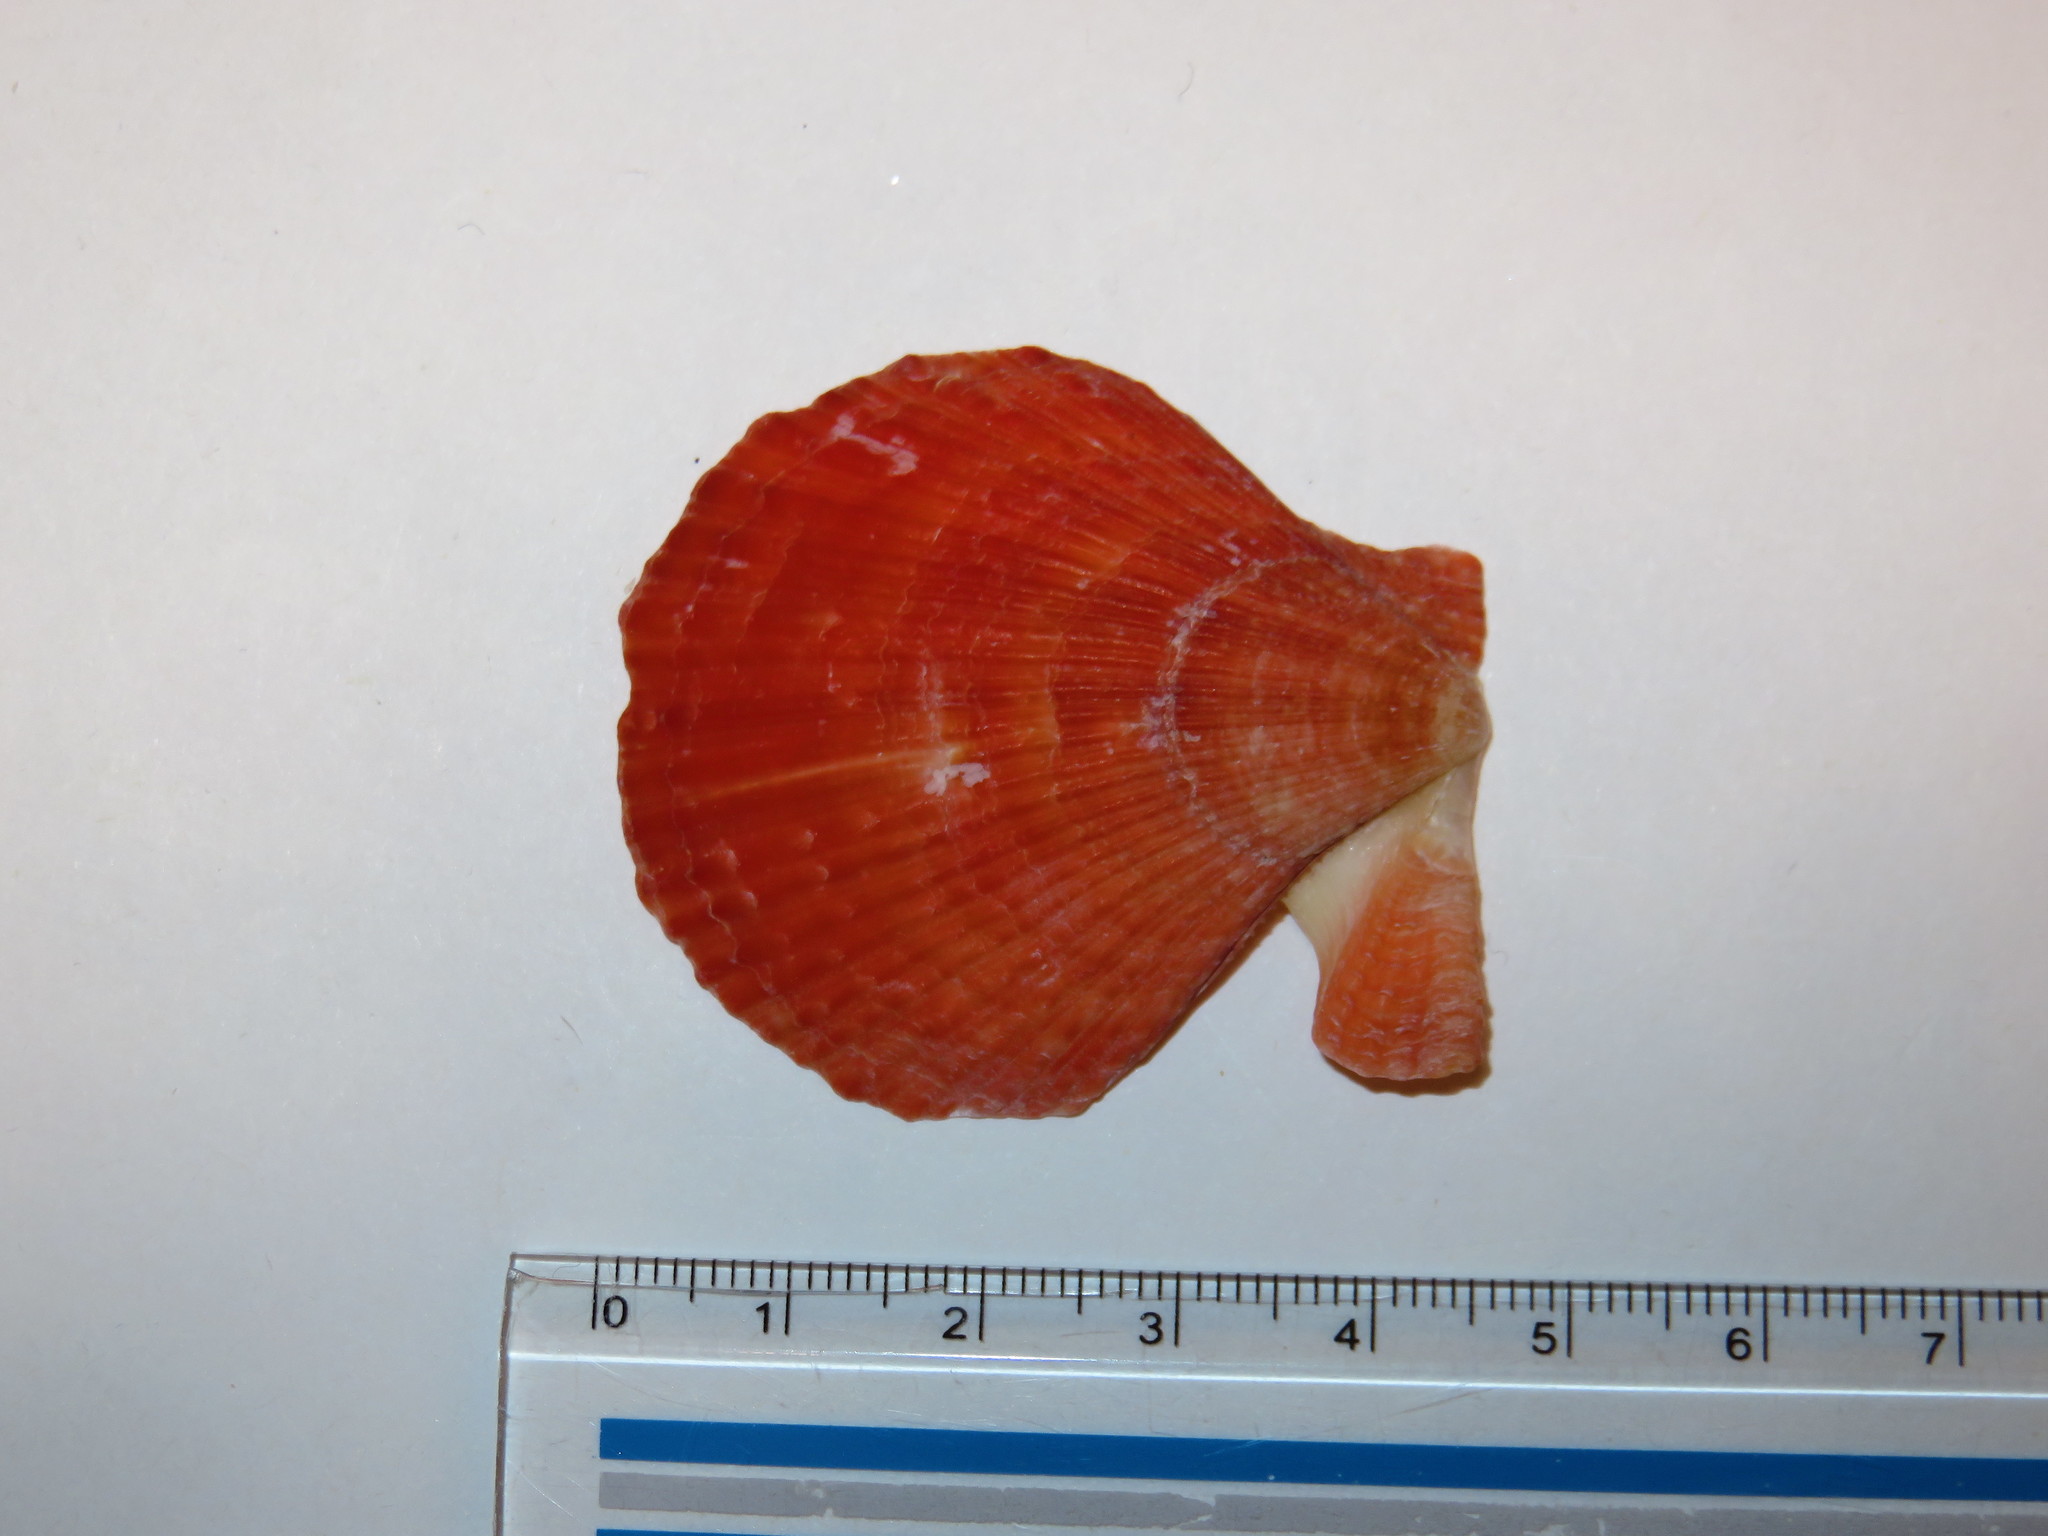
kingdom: Animalia
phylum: Mollusca
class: Bivalvia
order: Pectinida
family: Pectinidae
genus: Chlamys
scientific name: Chlamys farreri
